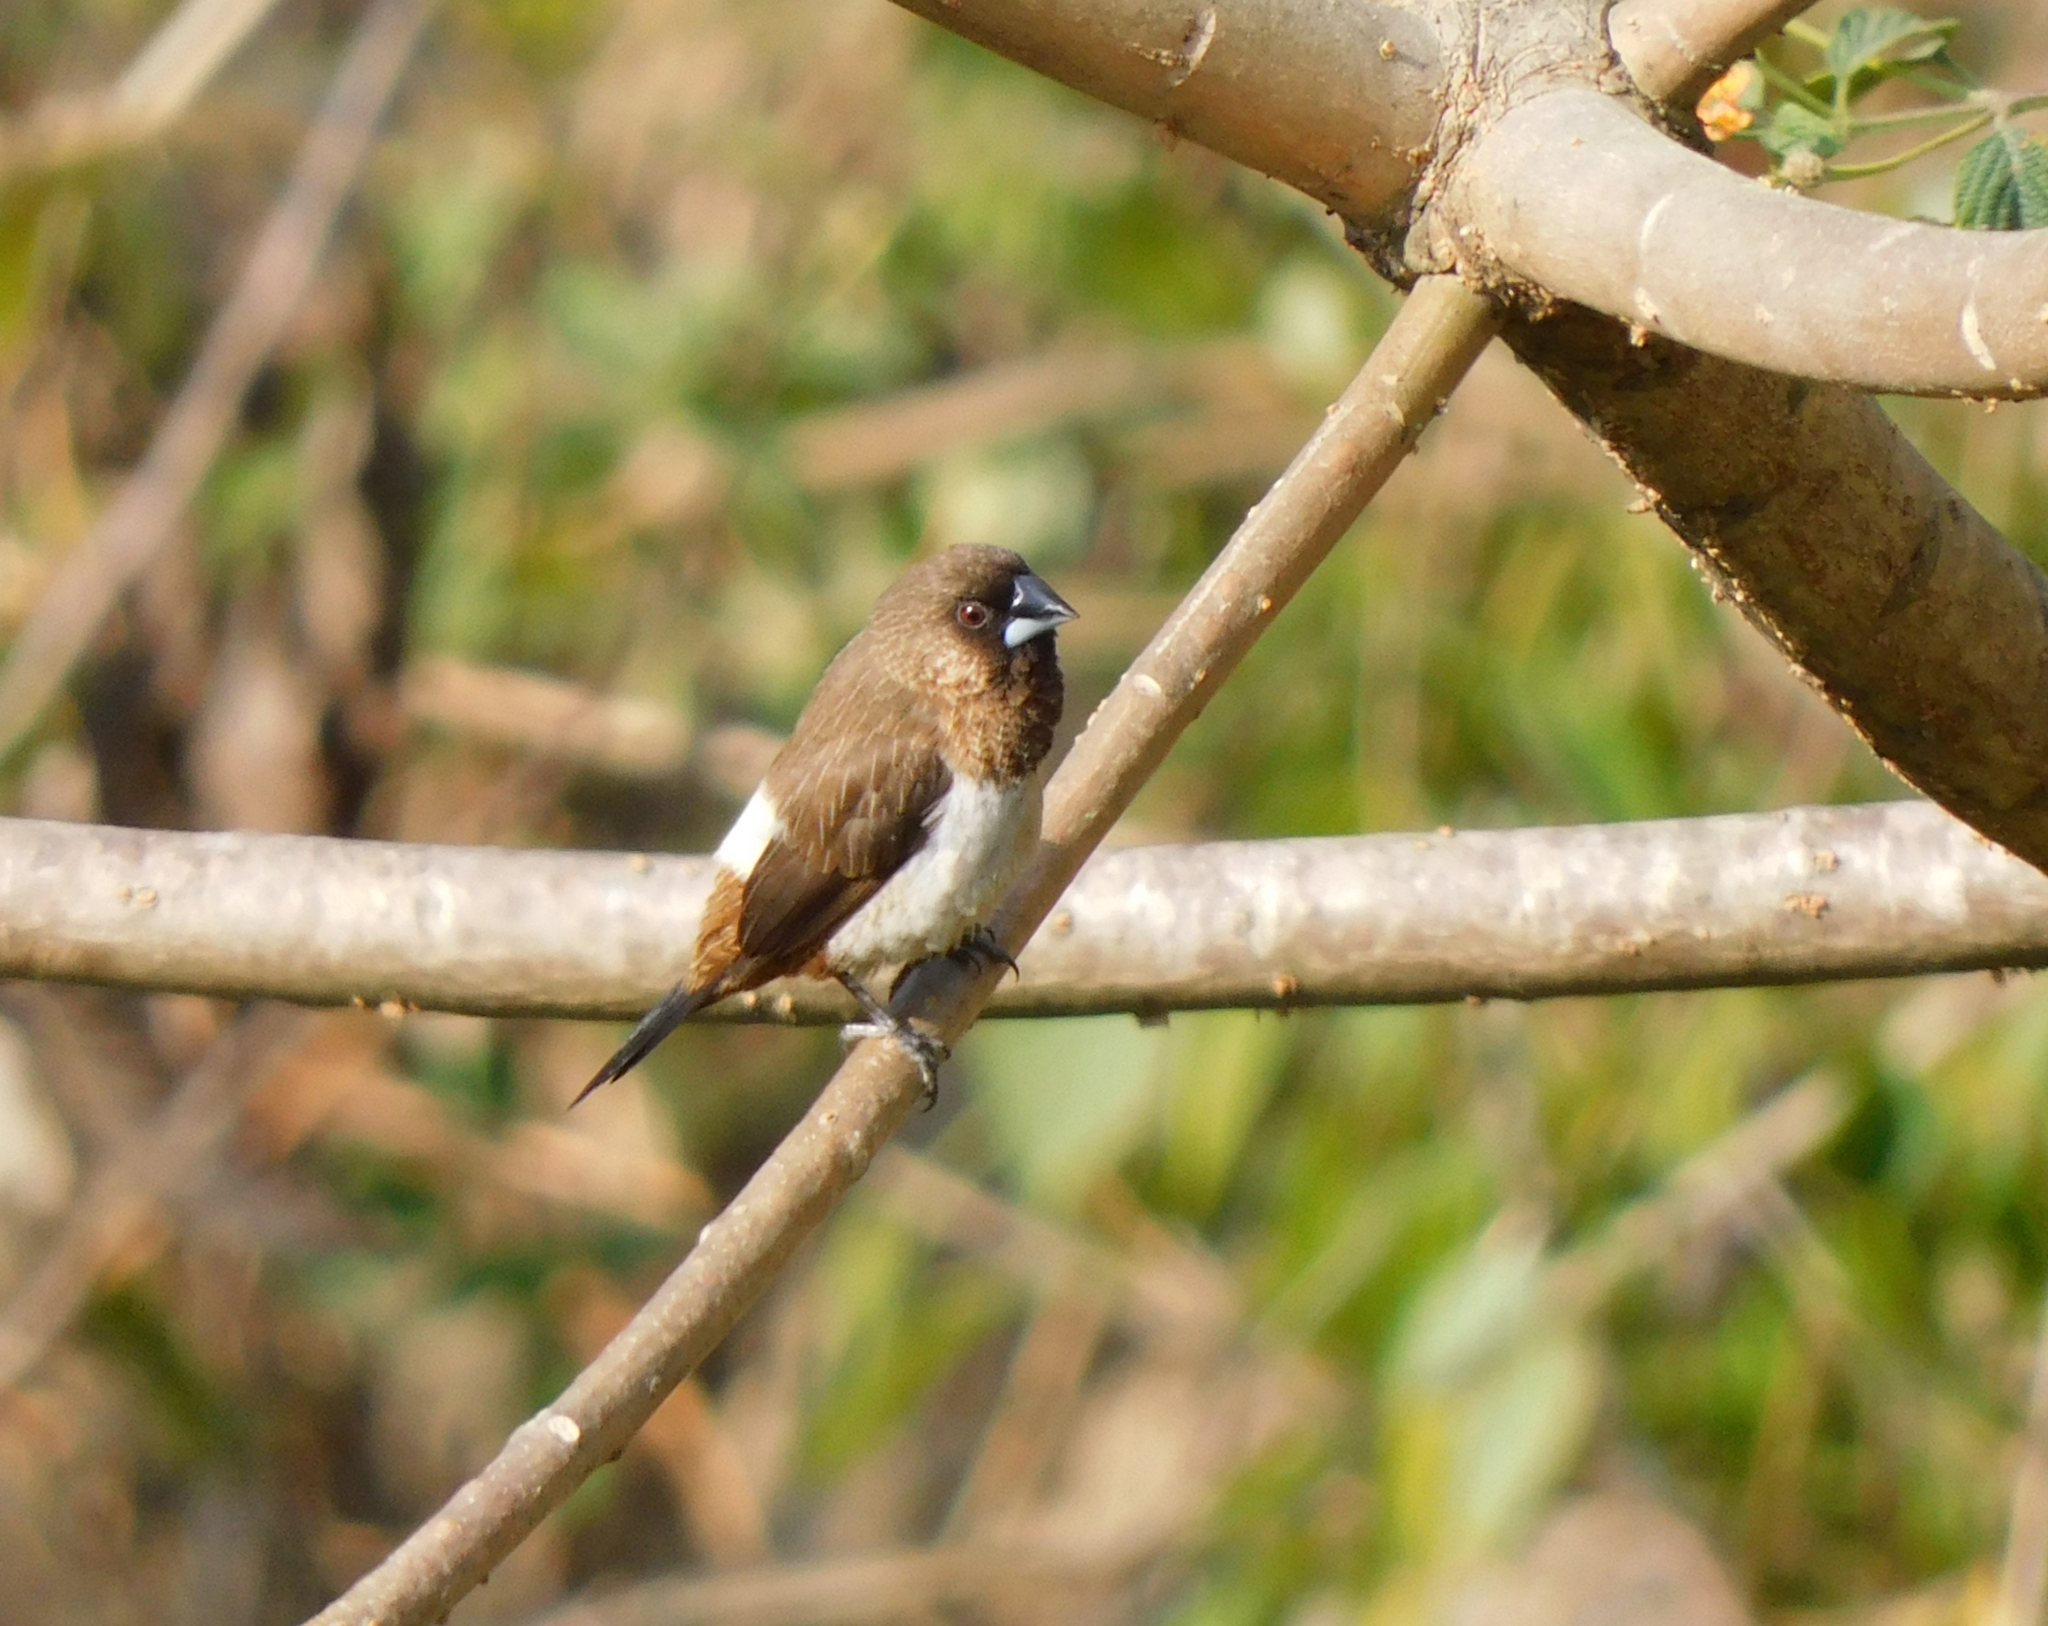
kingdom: Animalia
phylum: Chordata
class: Aves
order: Passeriformes
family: Estrildidae
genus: Lonchura
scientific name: Lonchura striata
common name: White-rumped munia
